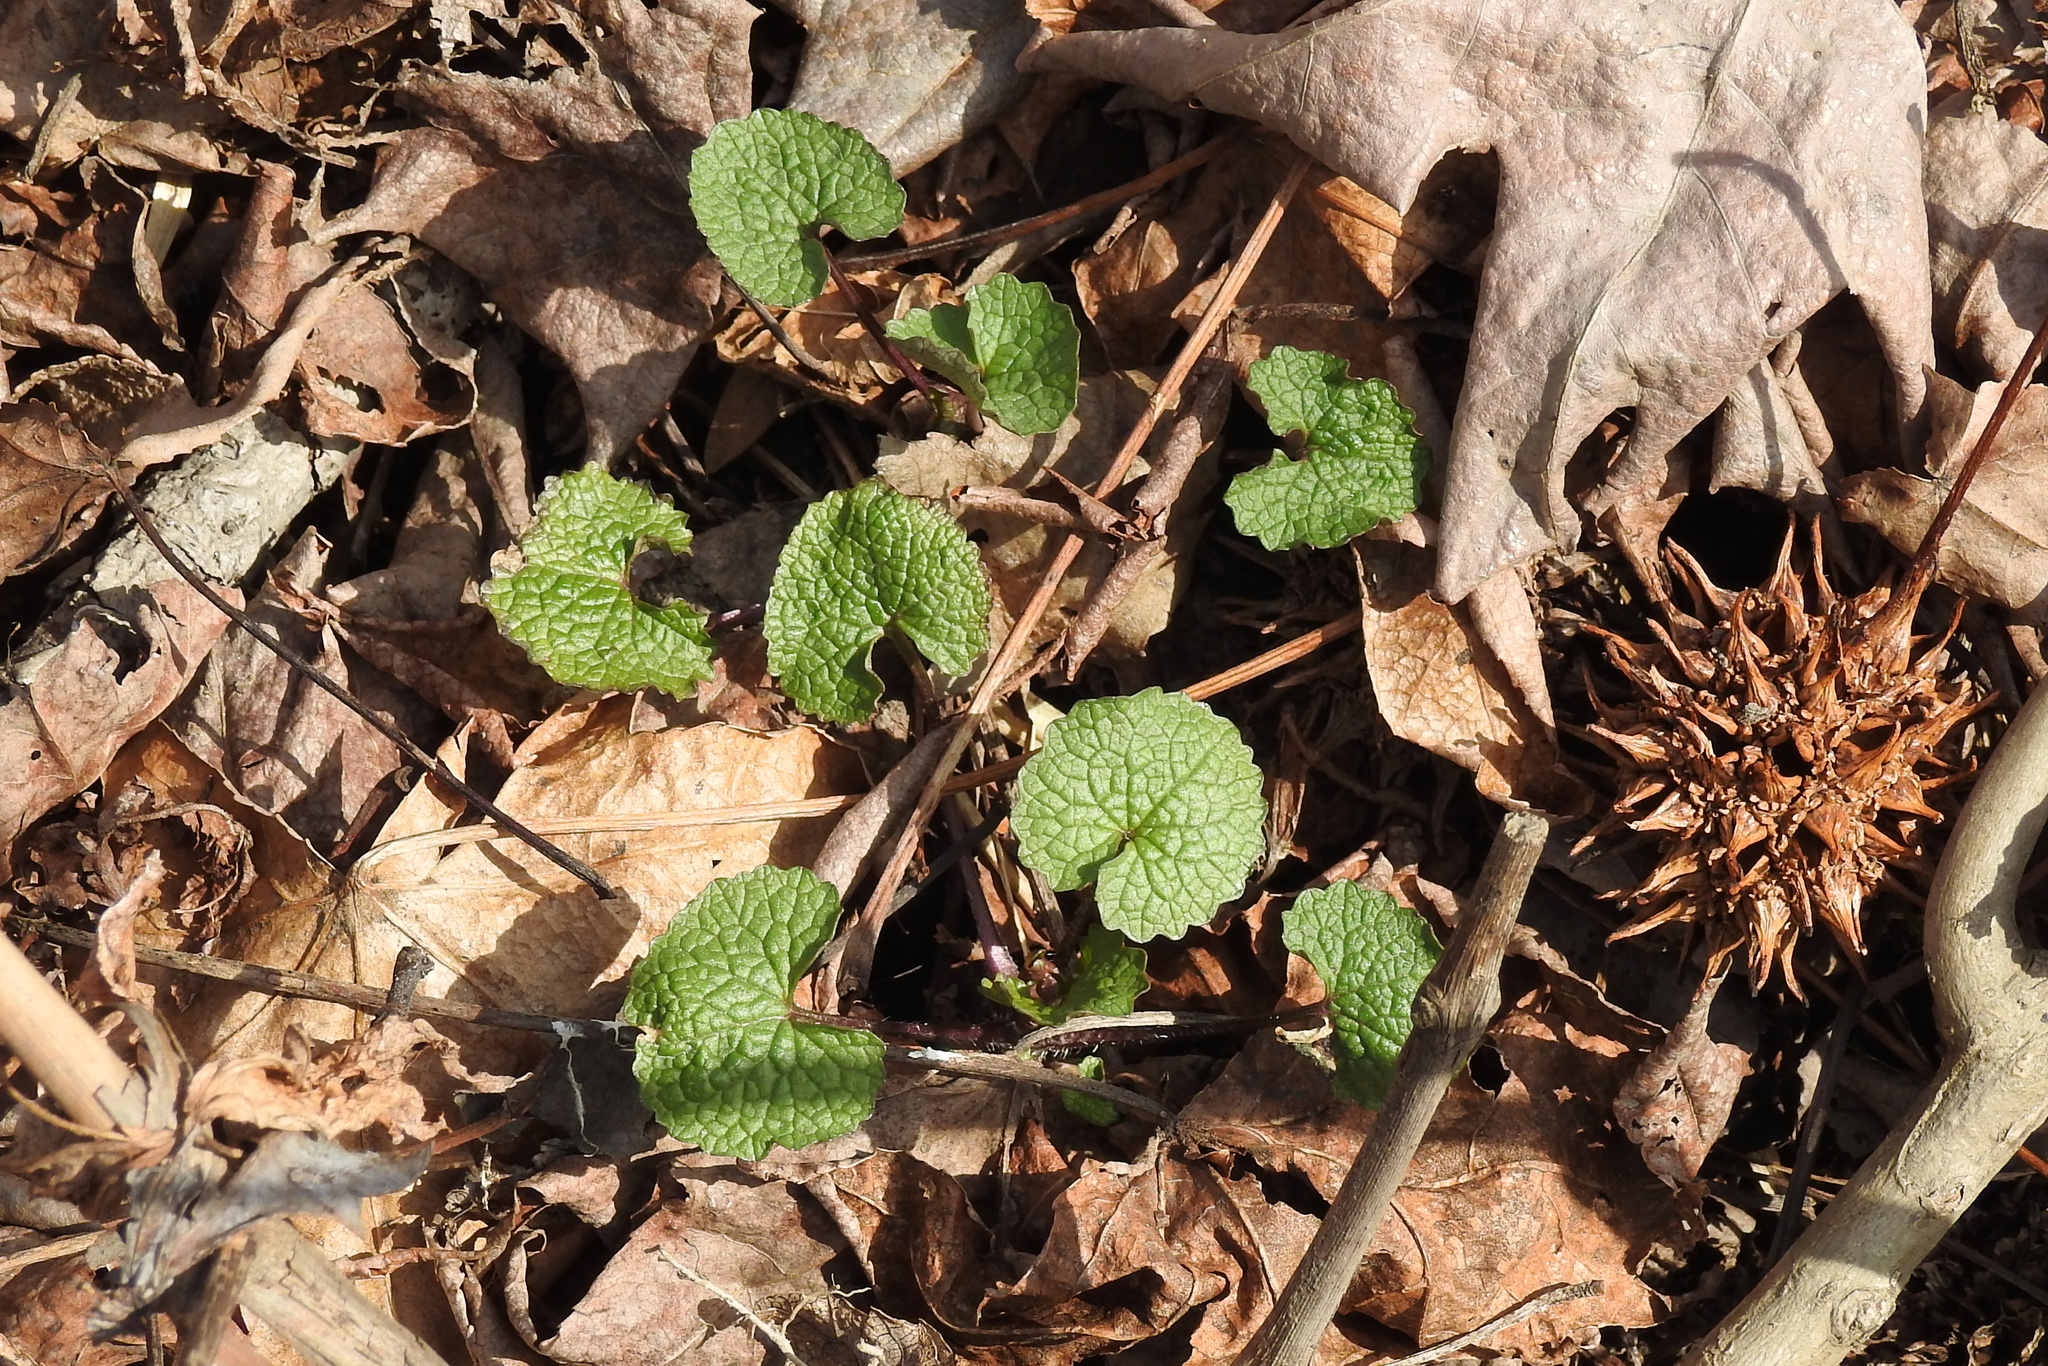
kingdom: Plantae
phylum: Tracheophyta
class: Magnoliopsida
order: Brassicales
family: Brassicaceae
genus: Alliaria
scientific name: Alliaria petiolata
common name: Garlic mustard
